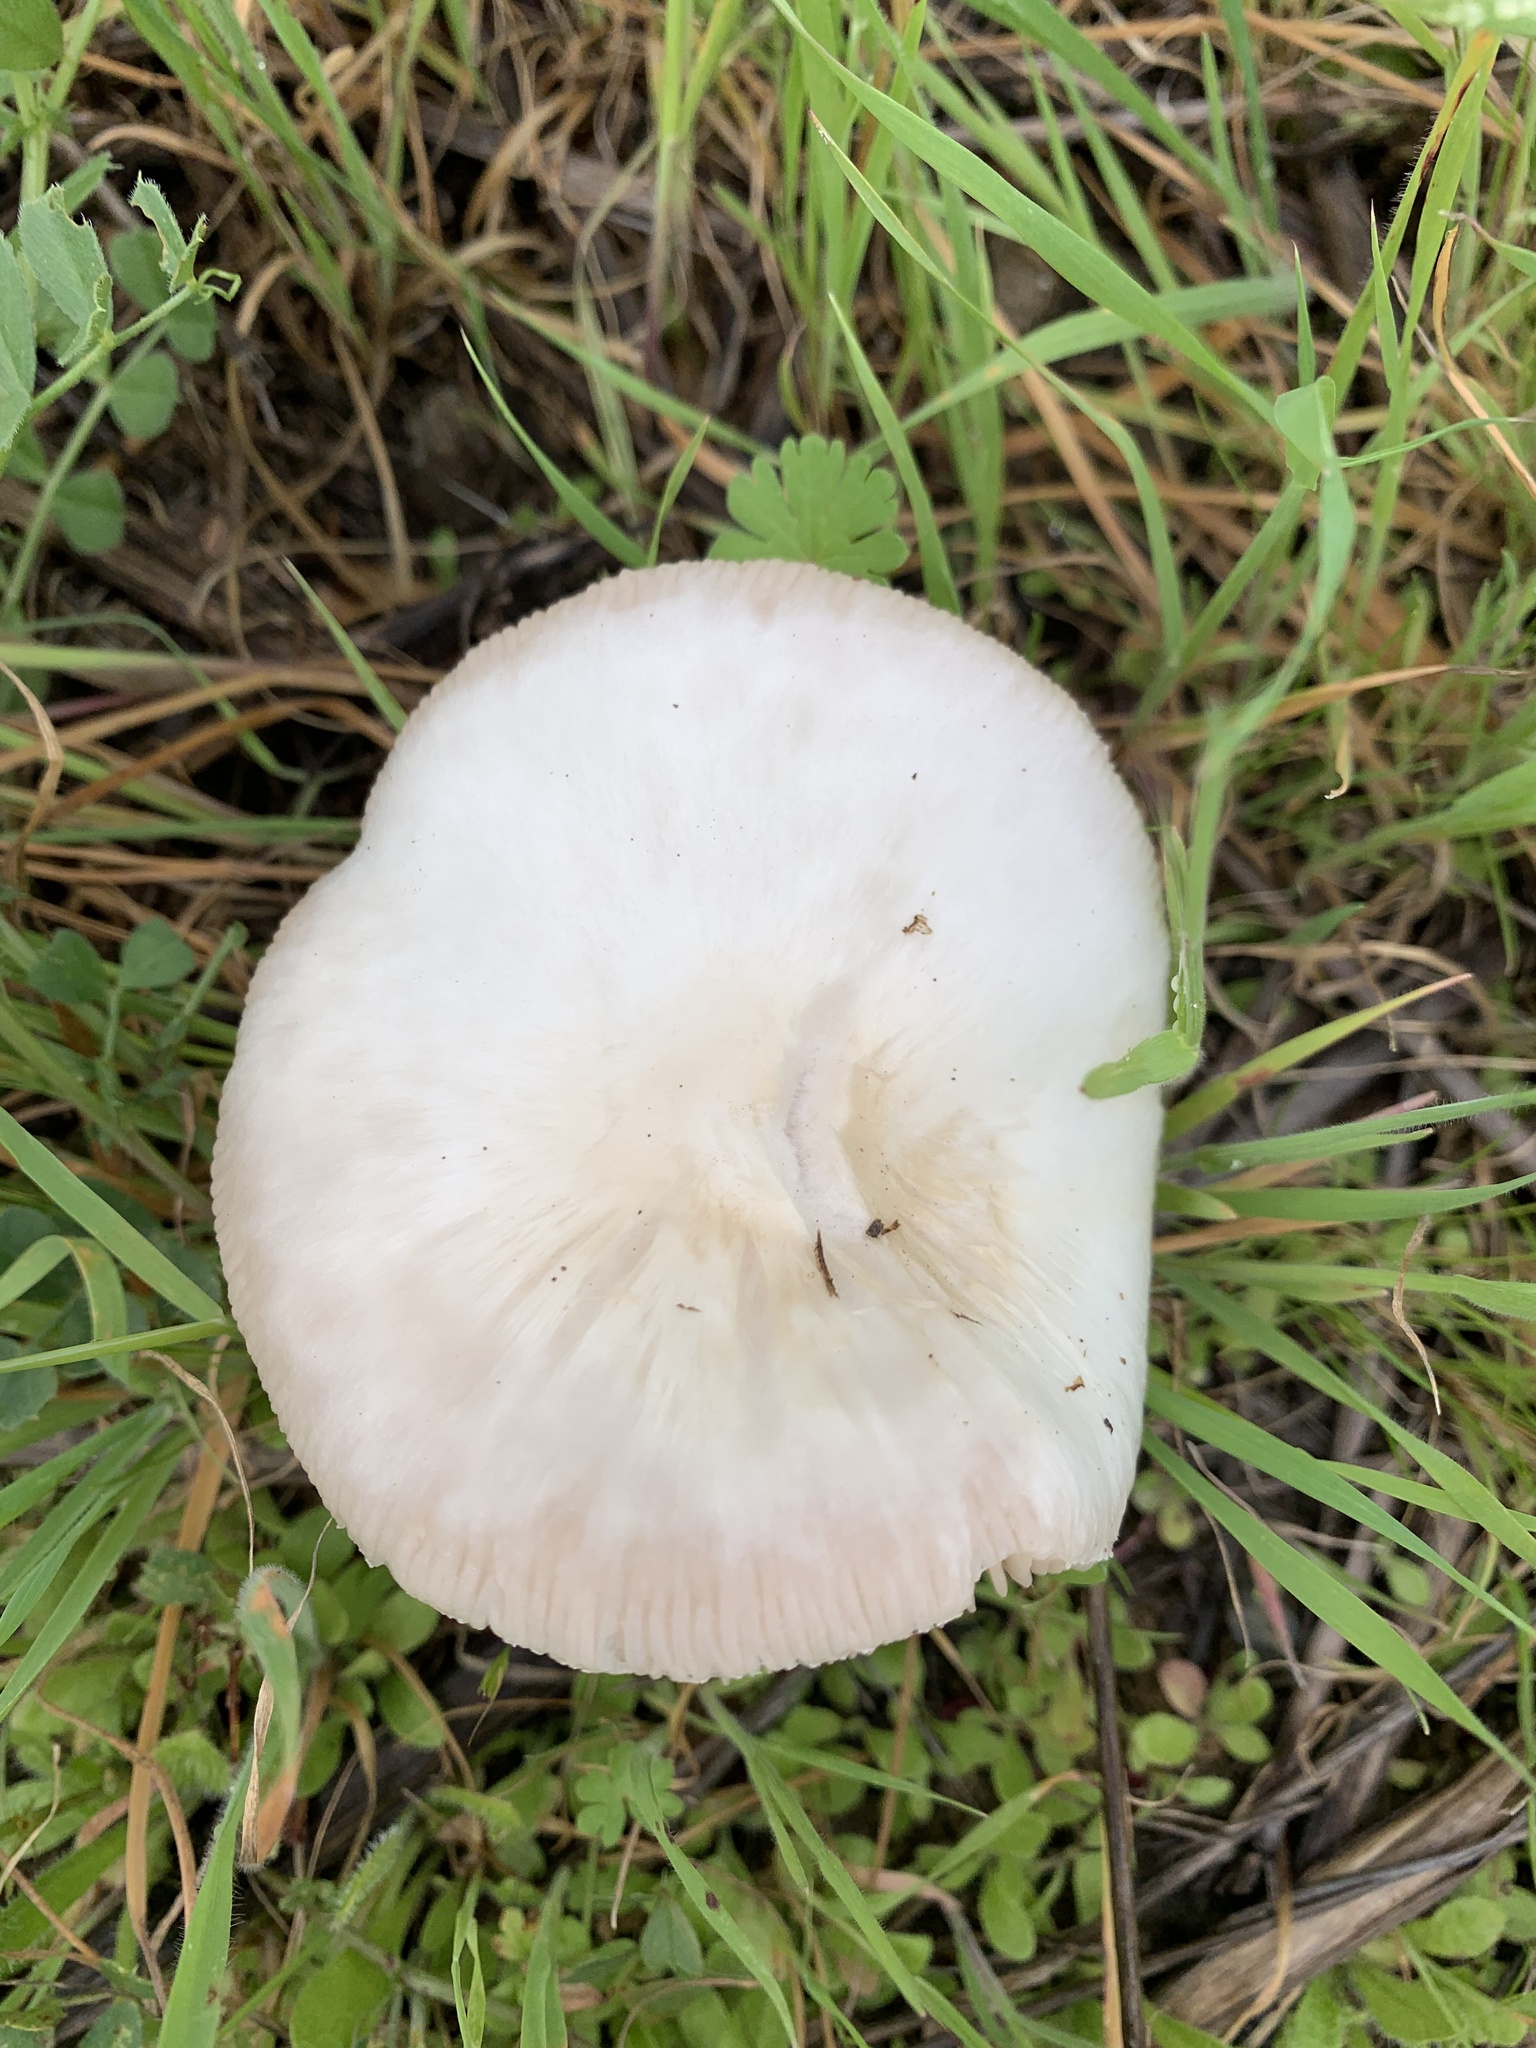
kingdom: Fungi
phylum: Basidiomycota
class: Agaricomycetes
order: Agaricales
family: Pluteaceae
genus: Volvopluteus
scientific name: Volvopluteus gloiocephalus
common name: Stubble rosegill
